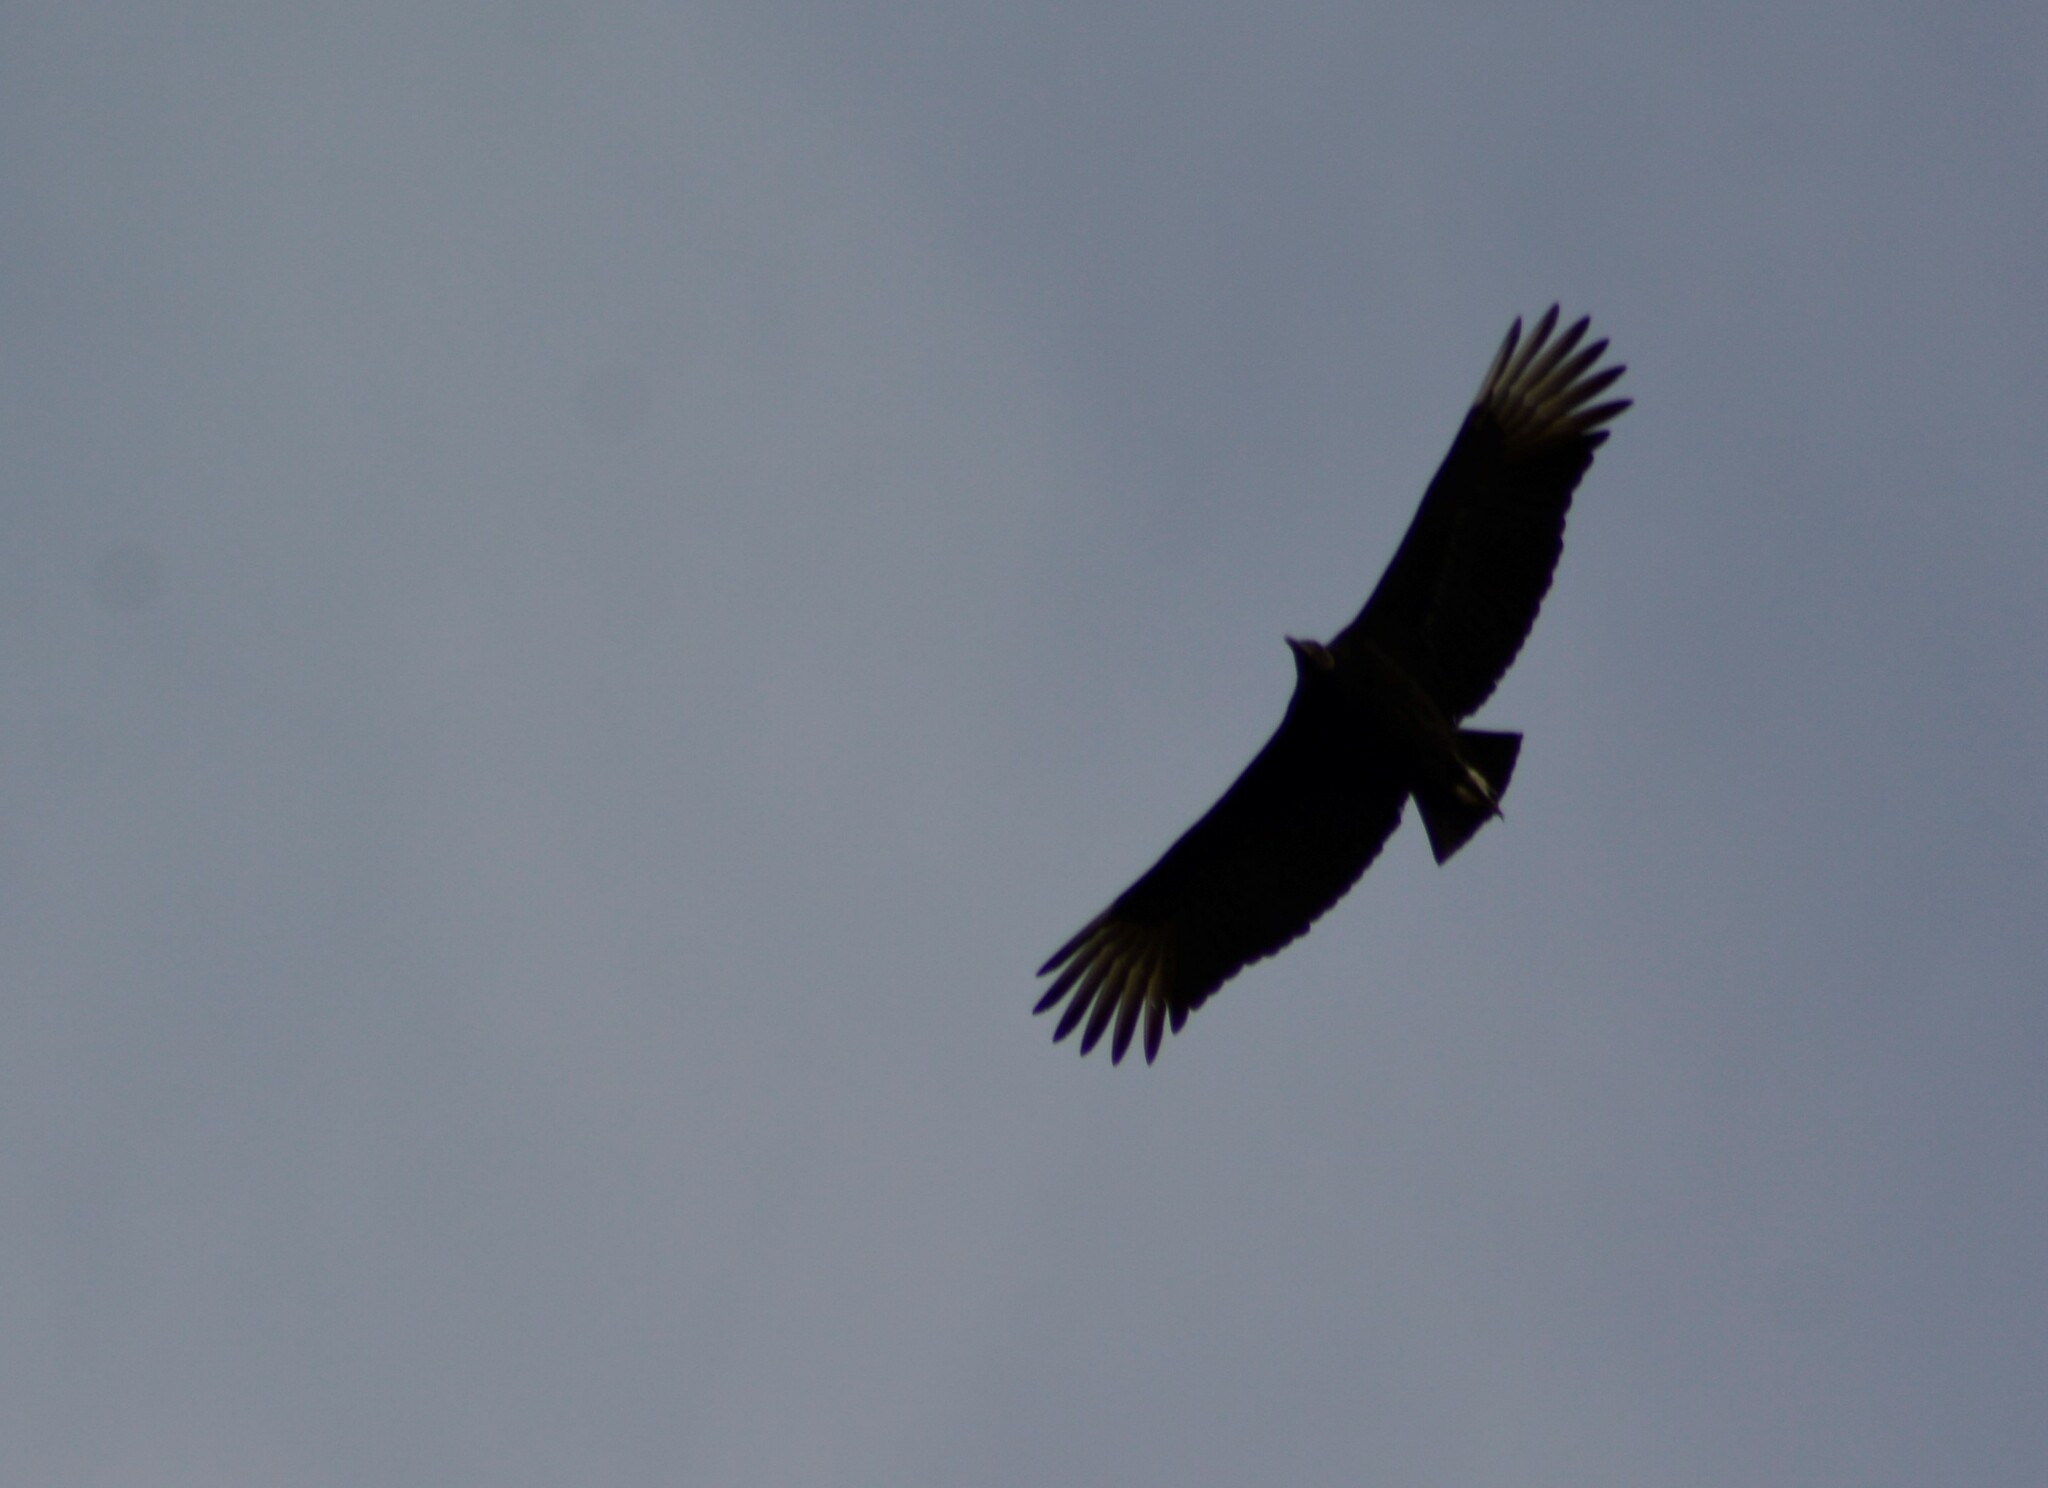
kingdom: Animalia
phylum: Chordata
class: Aves
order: Accipitriformes
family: Cathartidae
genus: Coragyps
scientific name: Coragyps atratus
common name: Black vulture
